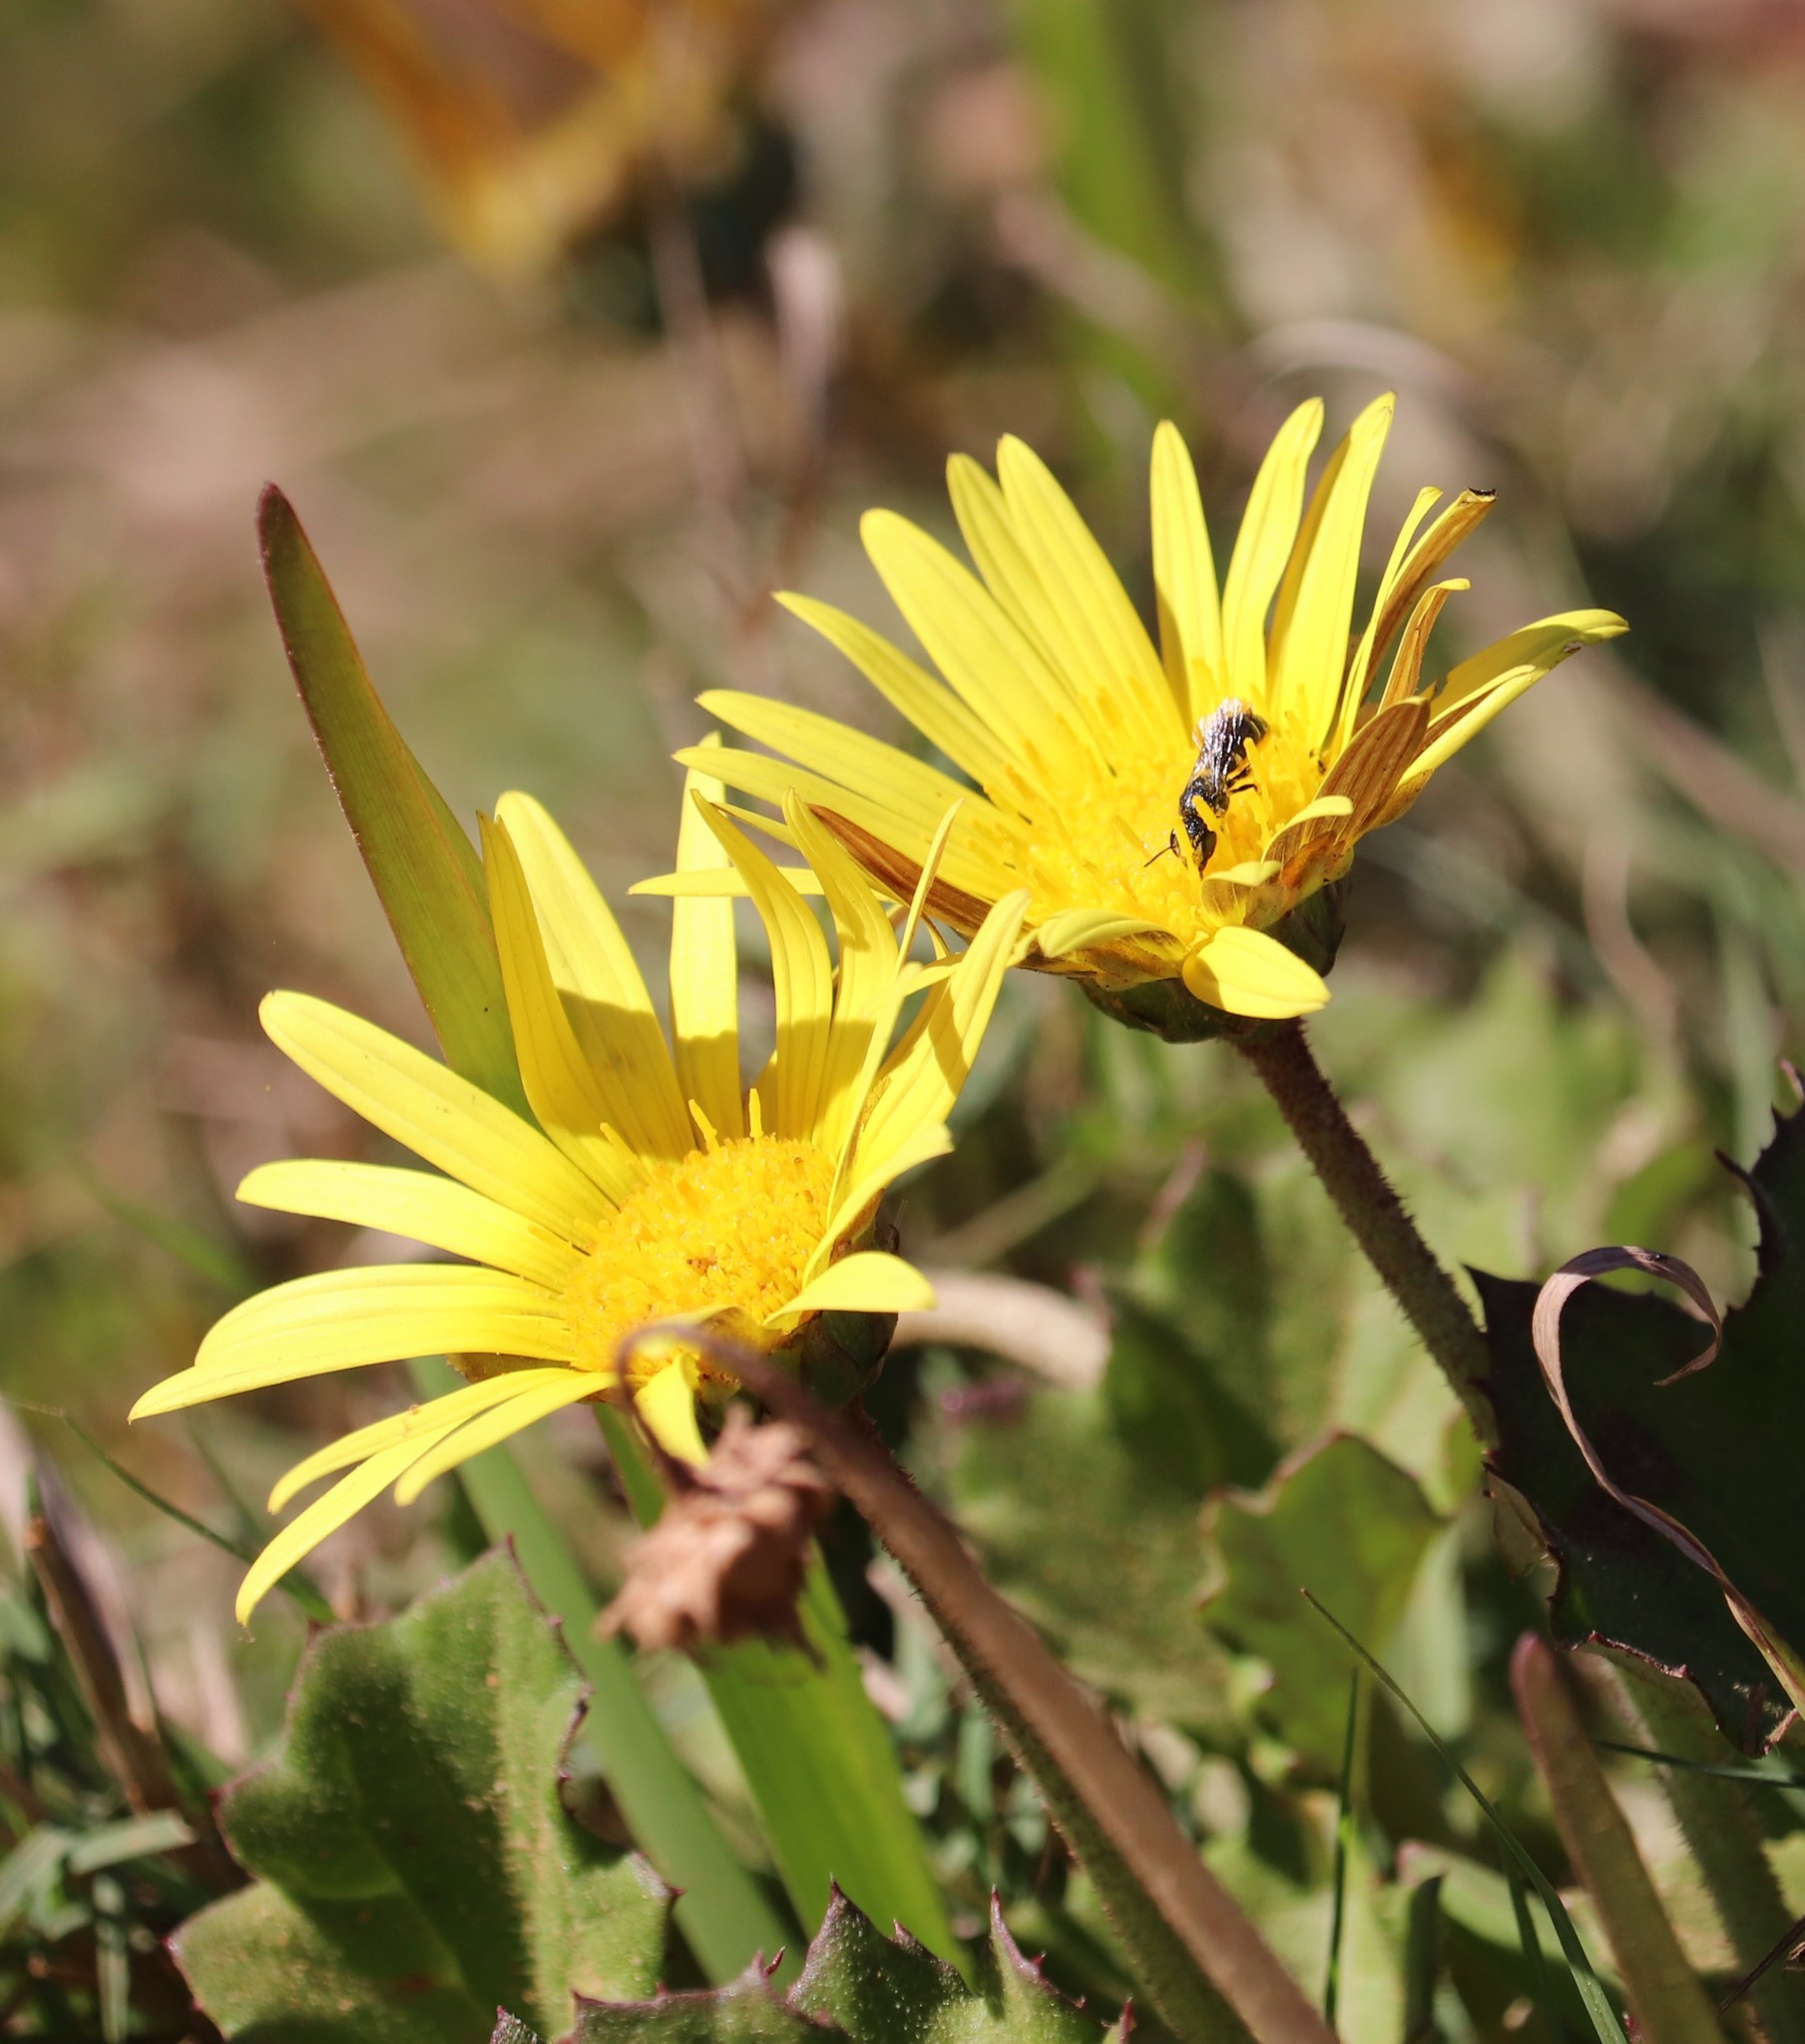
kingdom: Plantae
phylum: Tracheophyta
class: Magnoliopsida
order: Asterales
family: Asteraceae
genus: Arctotheca
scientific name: Arctotheca prostrata
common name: Capeweed
